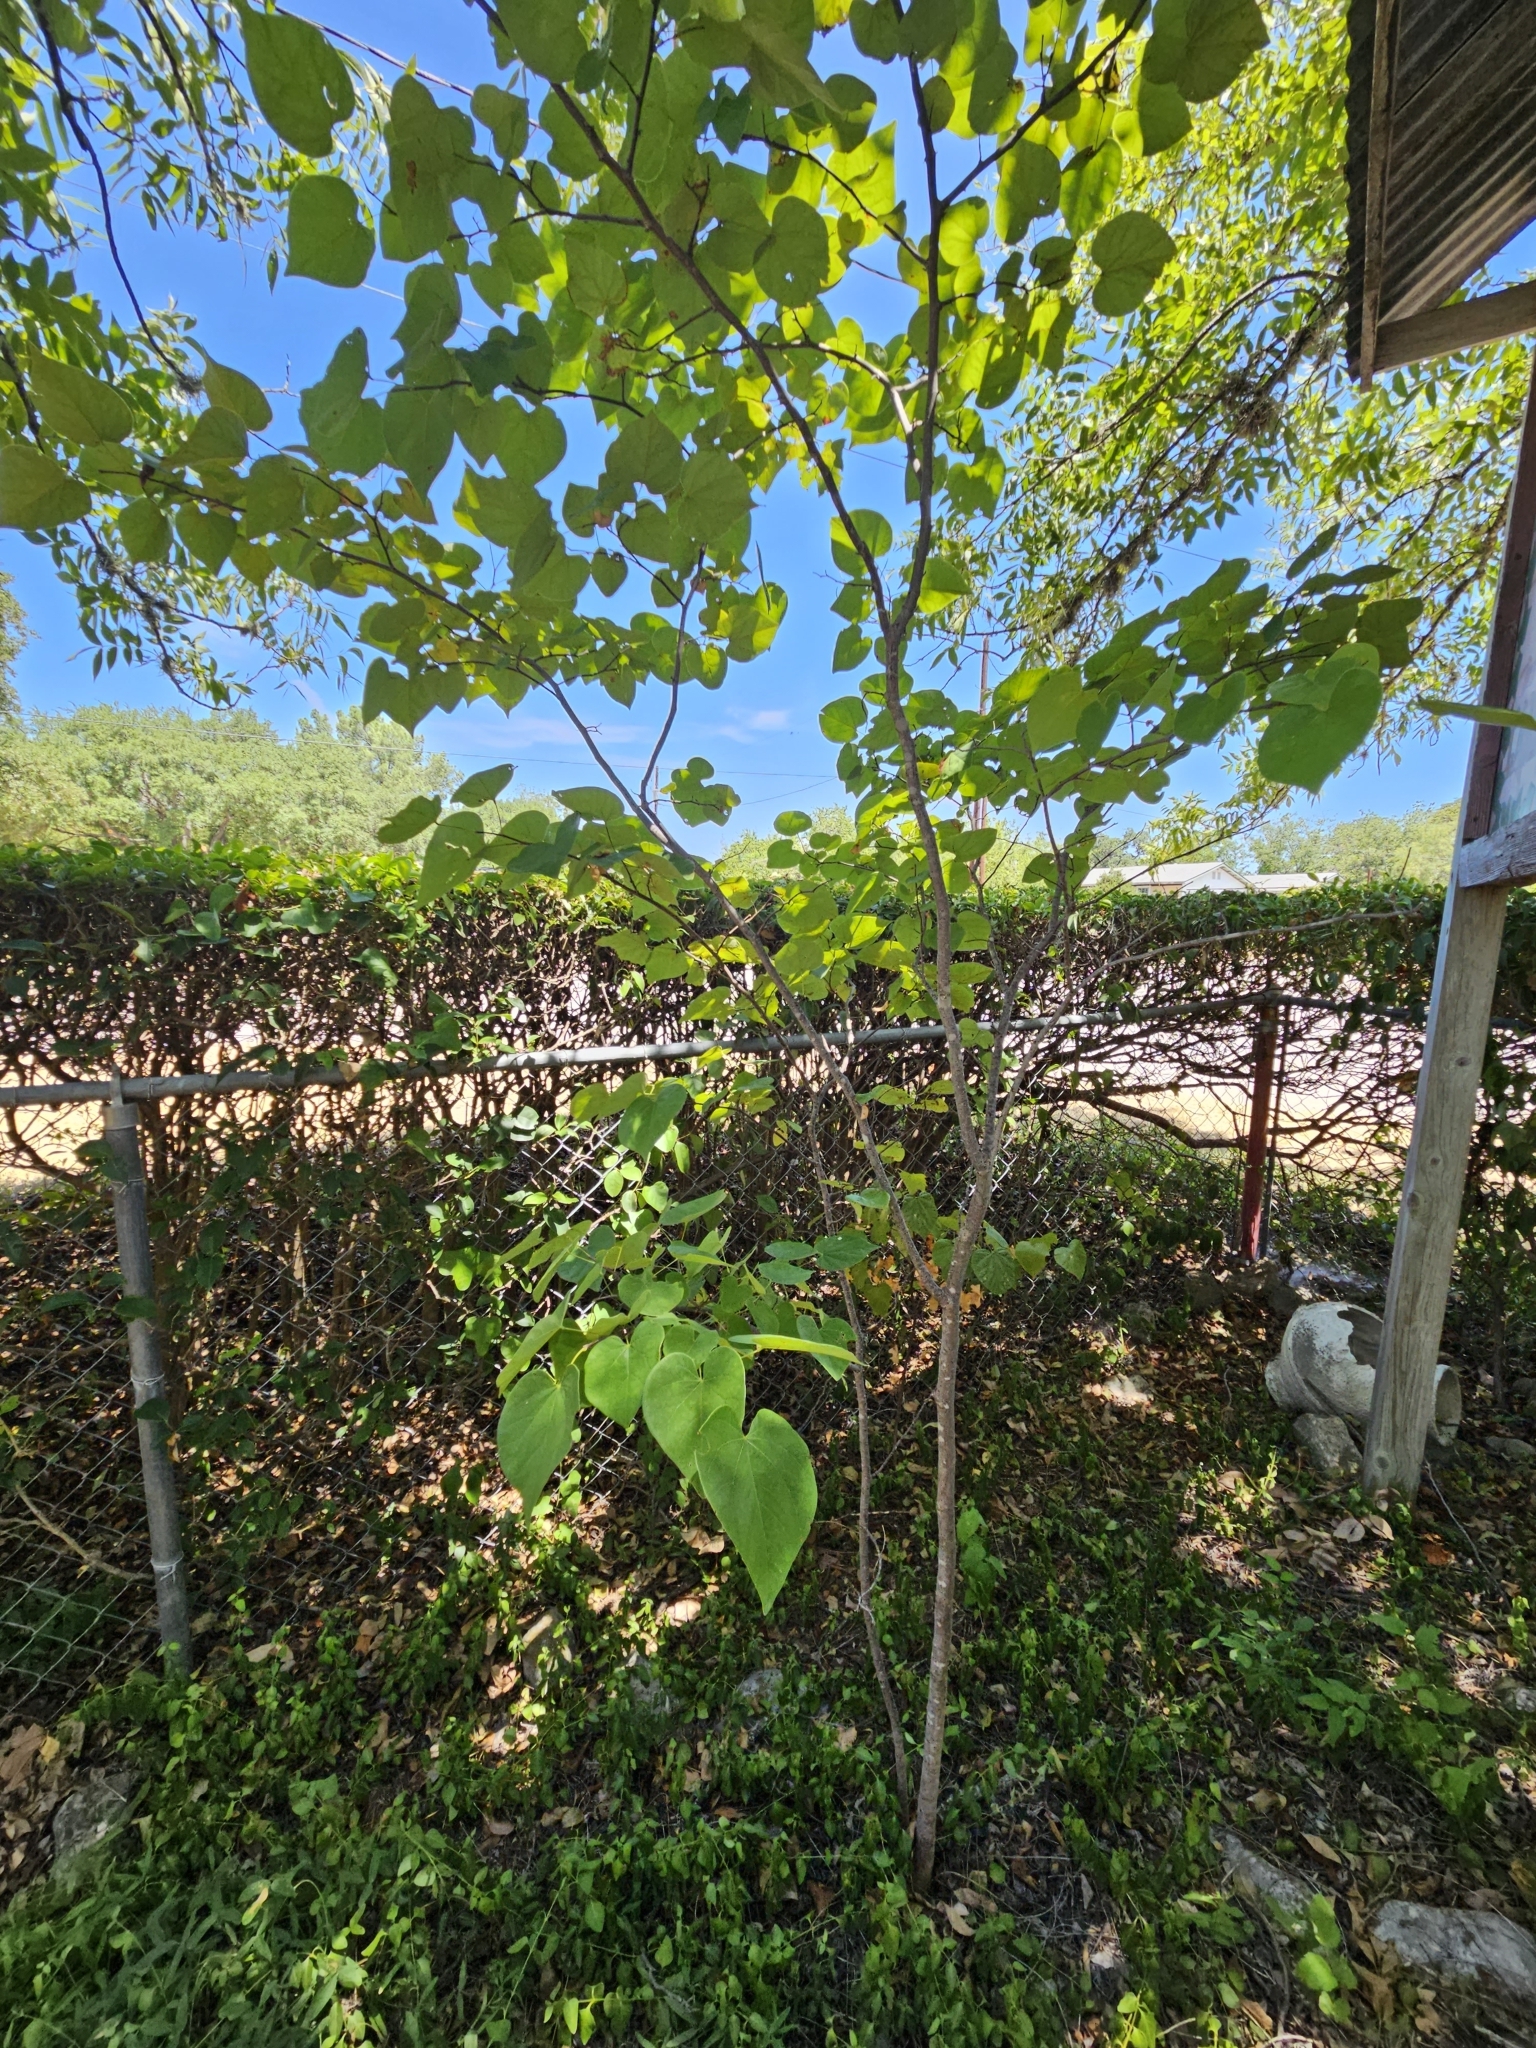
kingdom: Plantae
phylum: Tracheophyta
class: Magnoliopsida
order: Fabales
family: Fabaceae
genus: Cercis
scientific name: Cercis canadensis
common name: Eastern redbud
